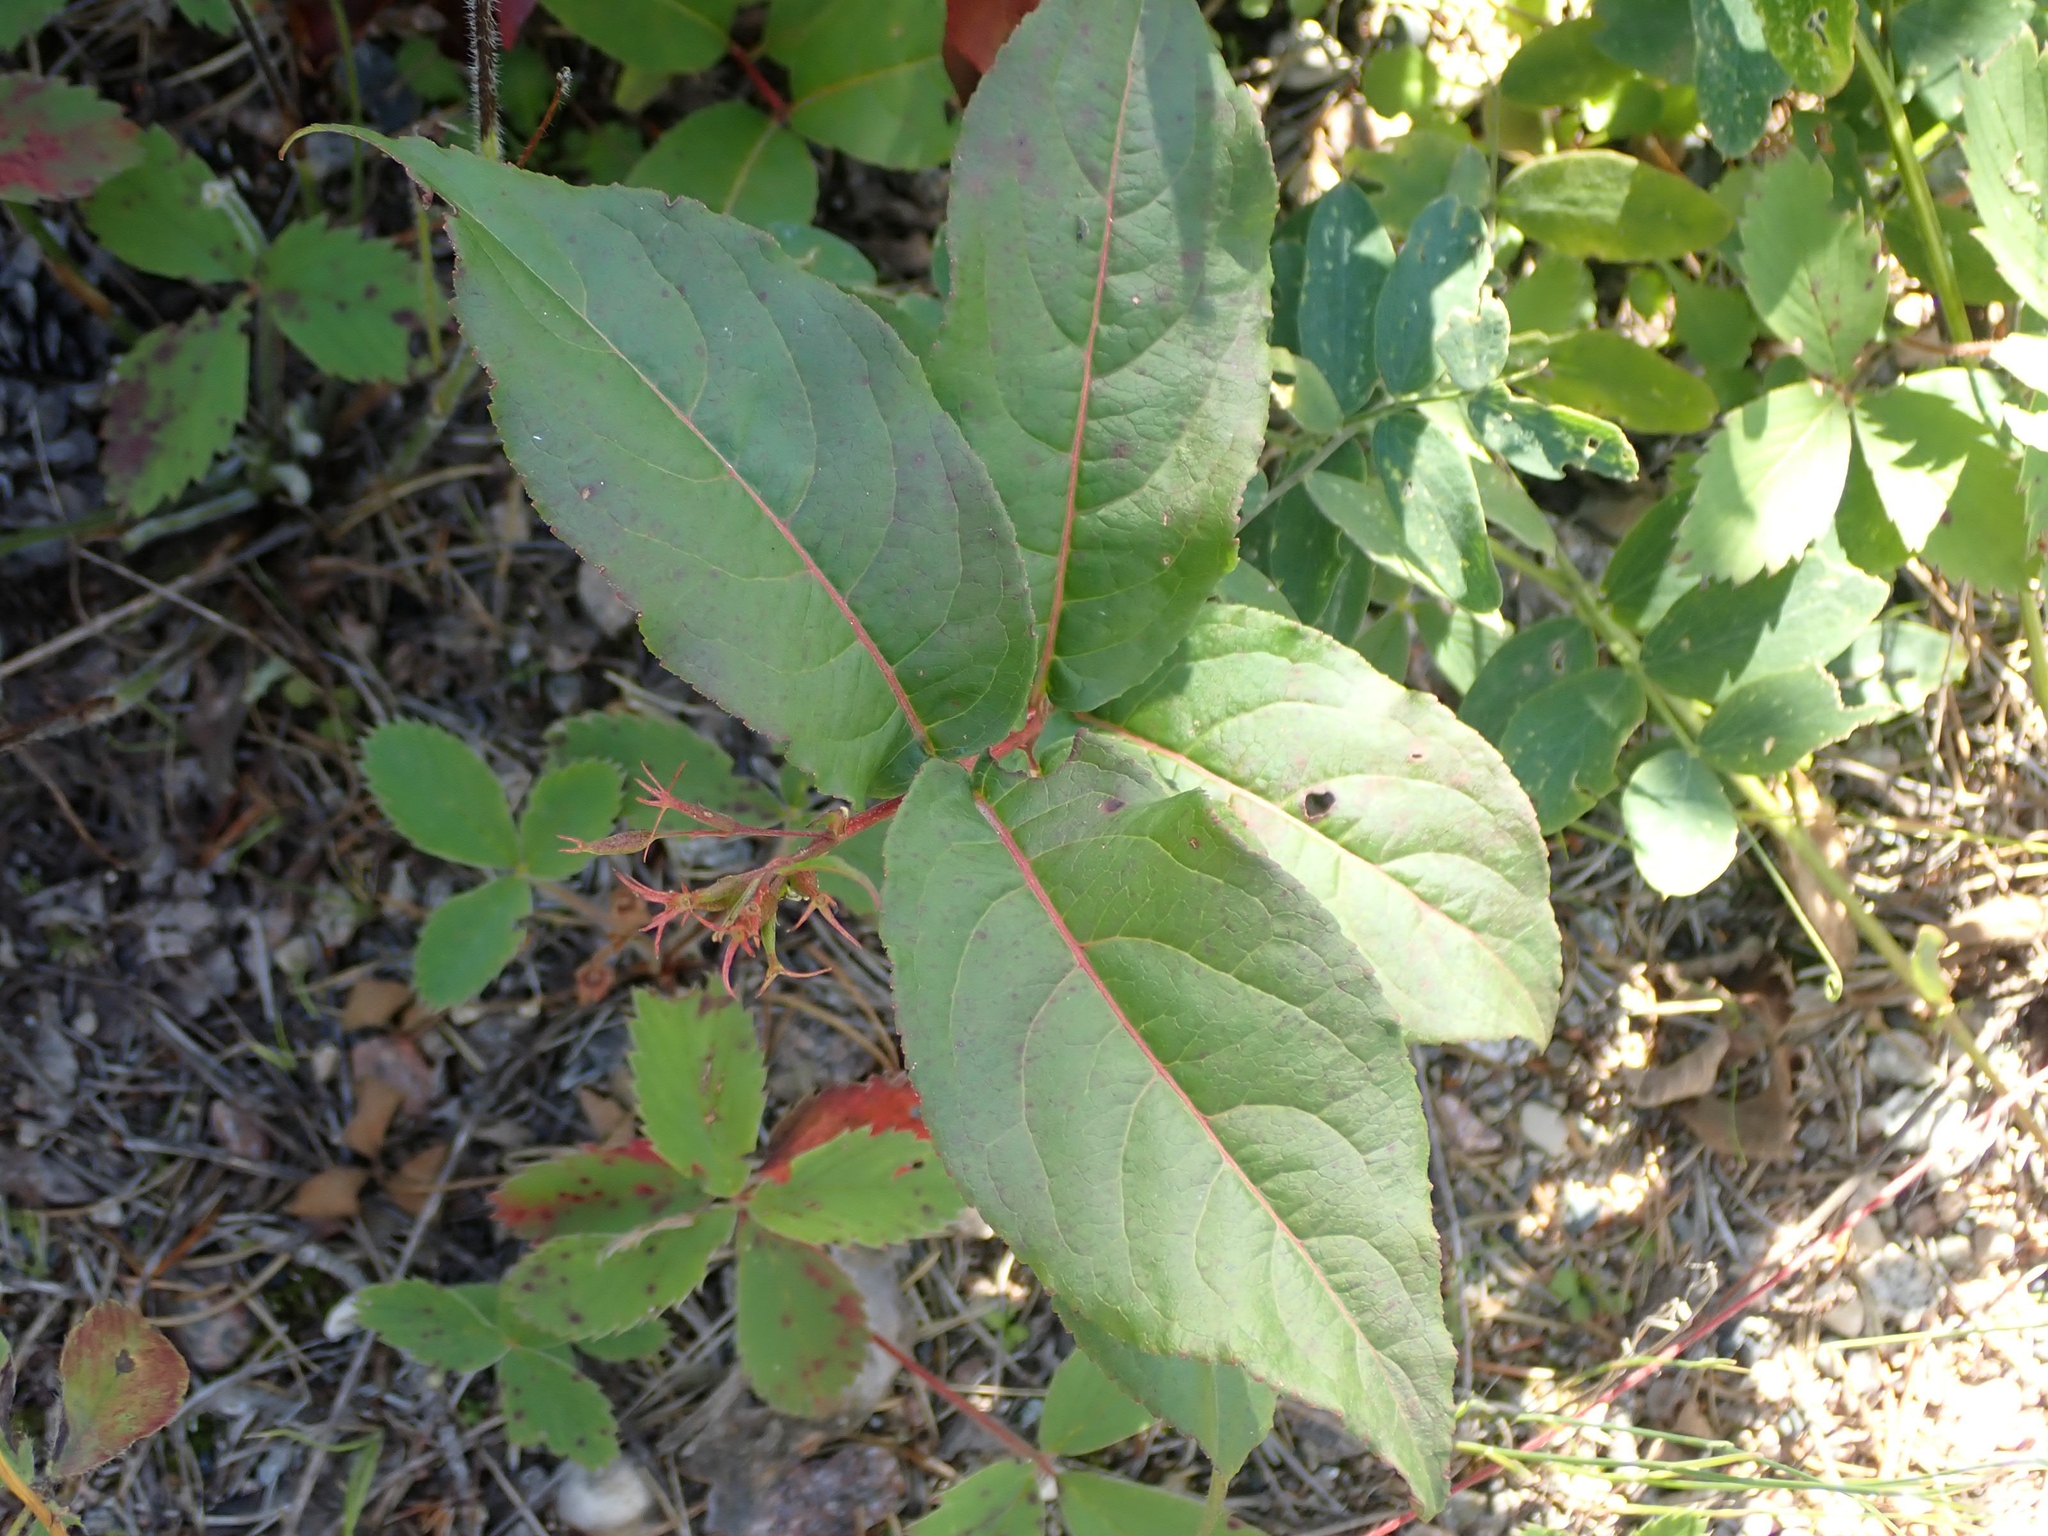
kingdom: Plantae
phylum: Tracheophyta
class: Magnoliopsida
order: Dipsacales
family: Caprifoliaceae
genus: Diervilla
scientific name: Diervilla lonicera
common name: Bush-honeysuckle
